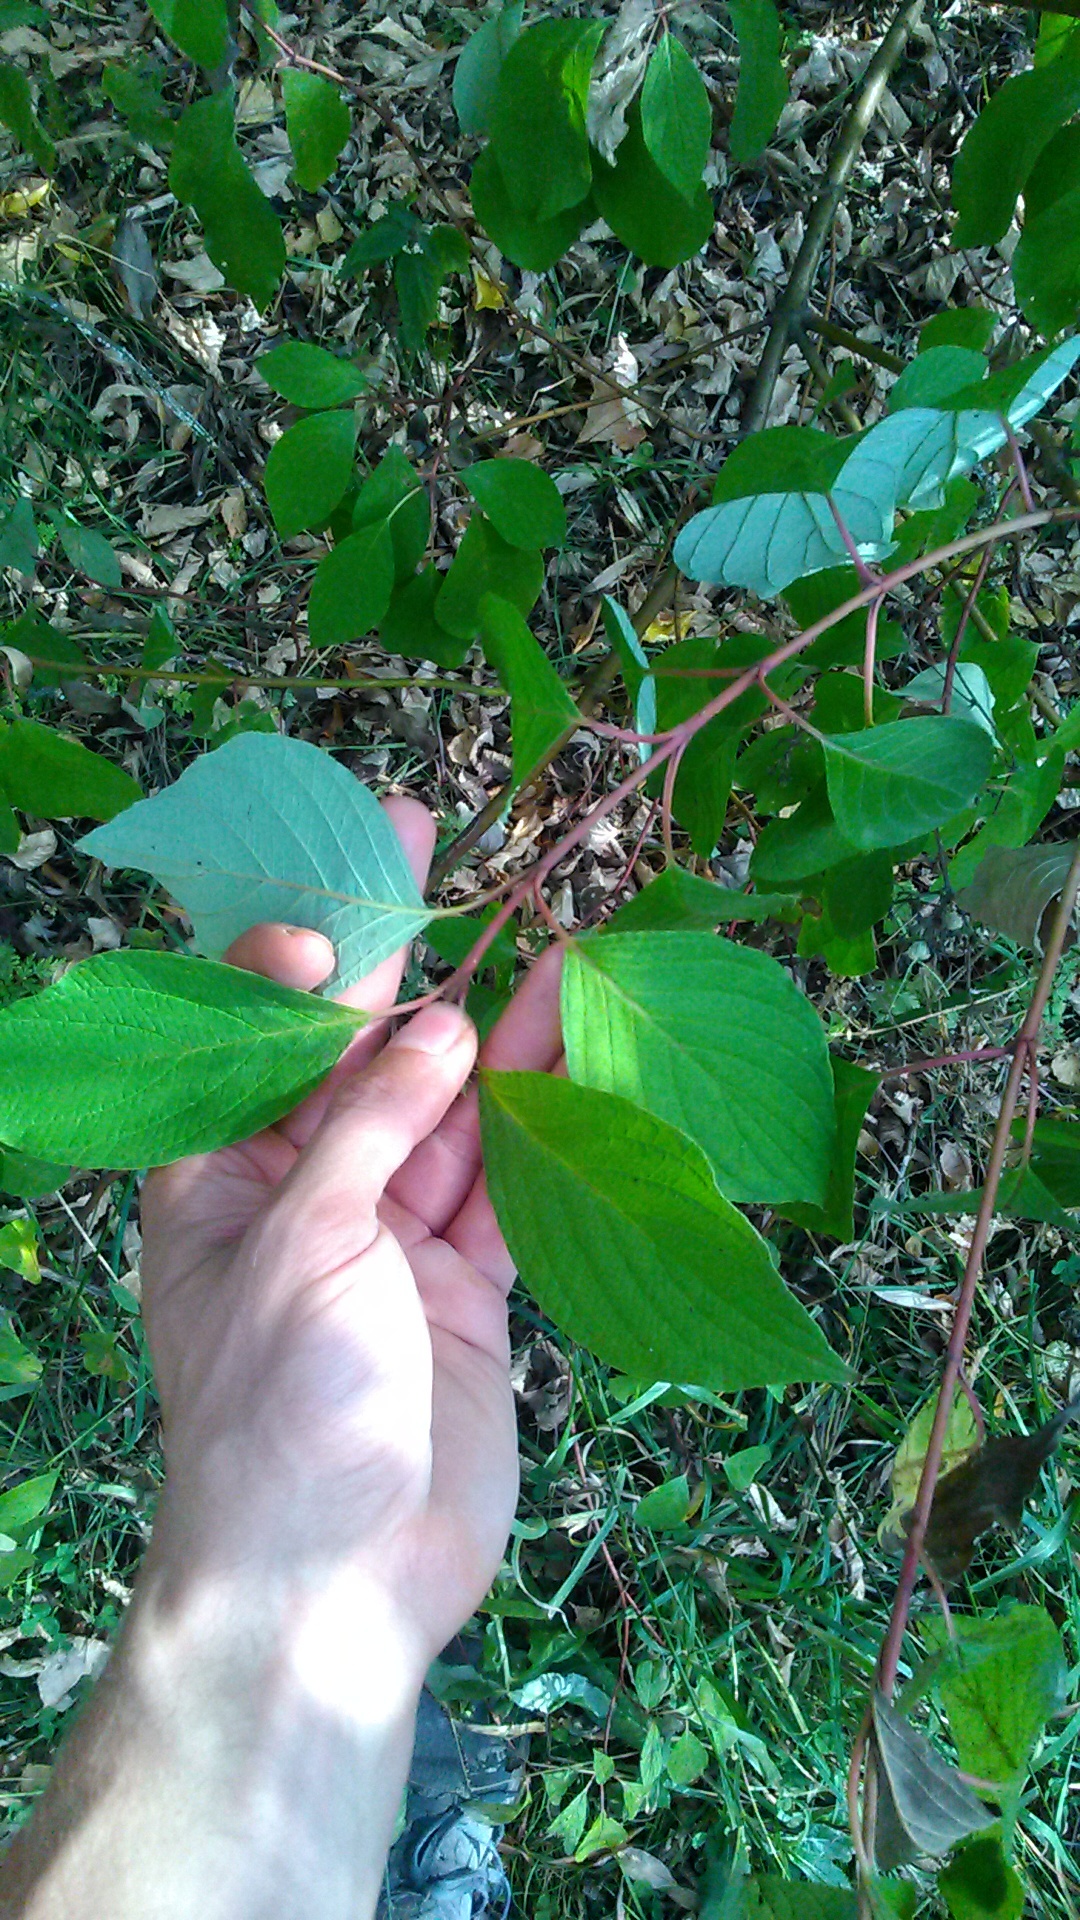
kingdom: Plantae
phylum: Tracheophyta
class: Magnoliopsida
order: Cornales
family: Cornaceae
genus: Cornus
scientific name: Cornus sericea
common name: Red-osier dogwood
